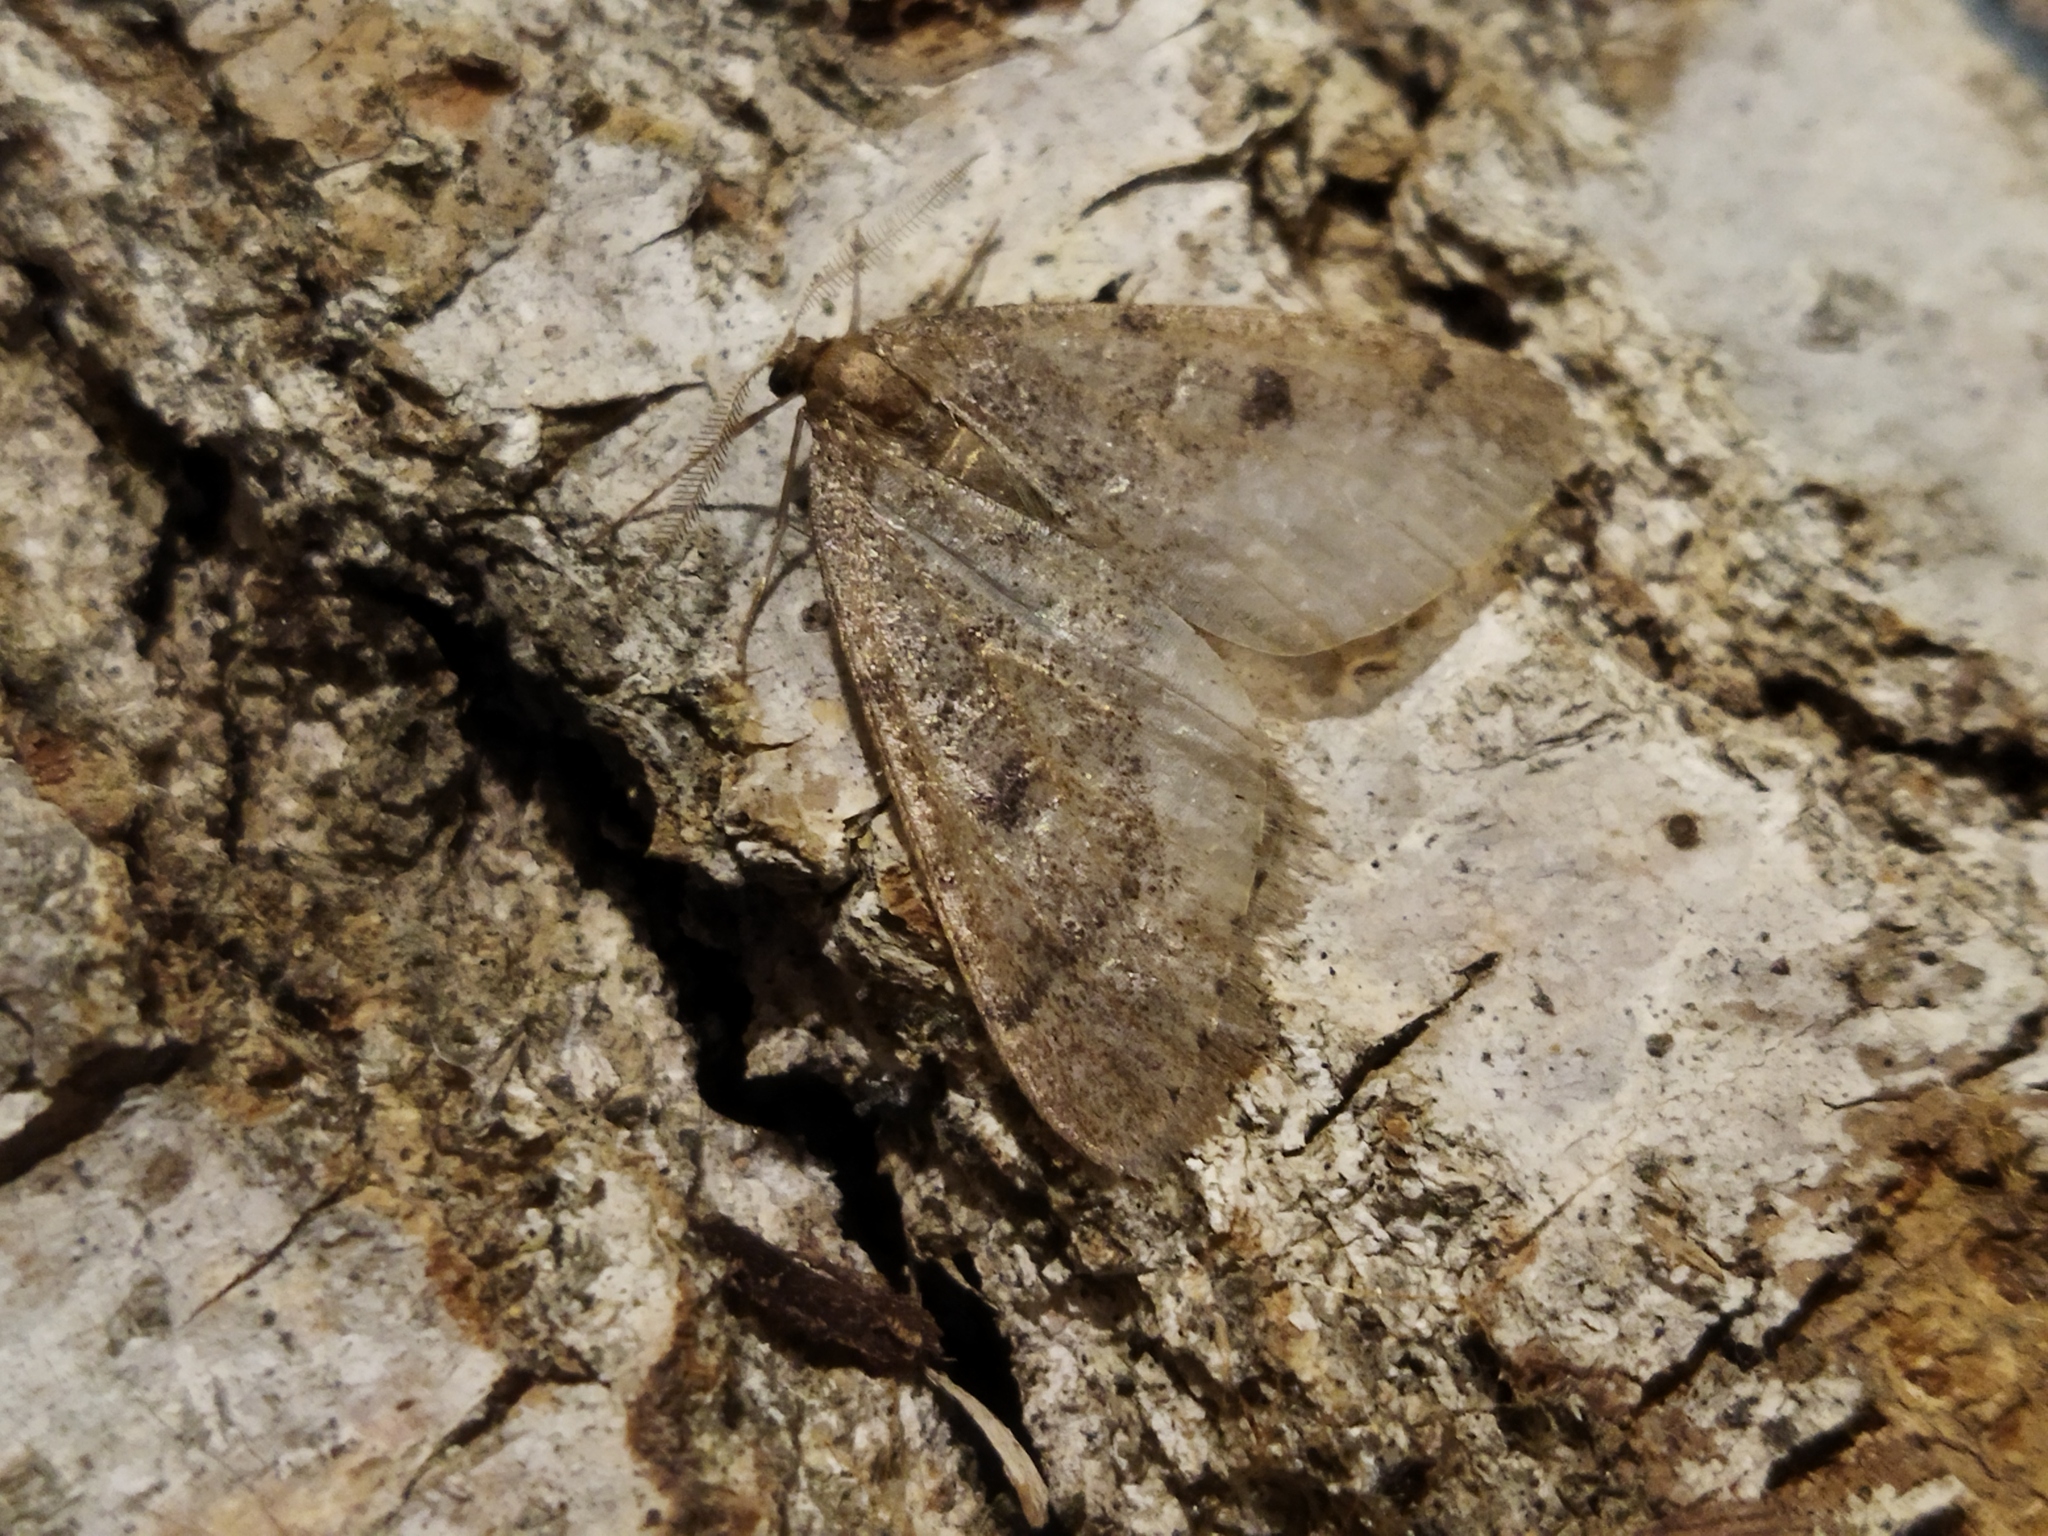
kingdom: Animalia
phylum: Arthropoda
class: Insecta
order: Lepidoptera
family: Geometridae
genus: Theria
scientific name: Theria rupicapraria
